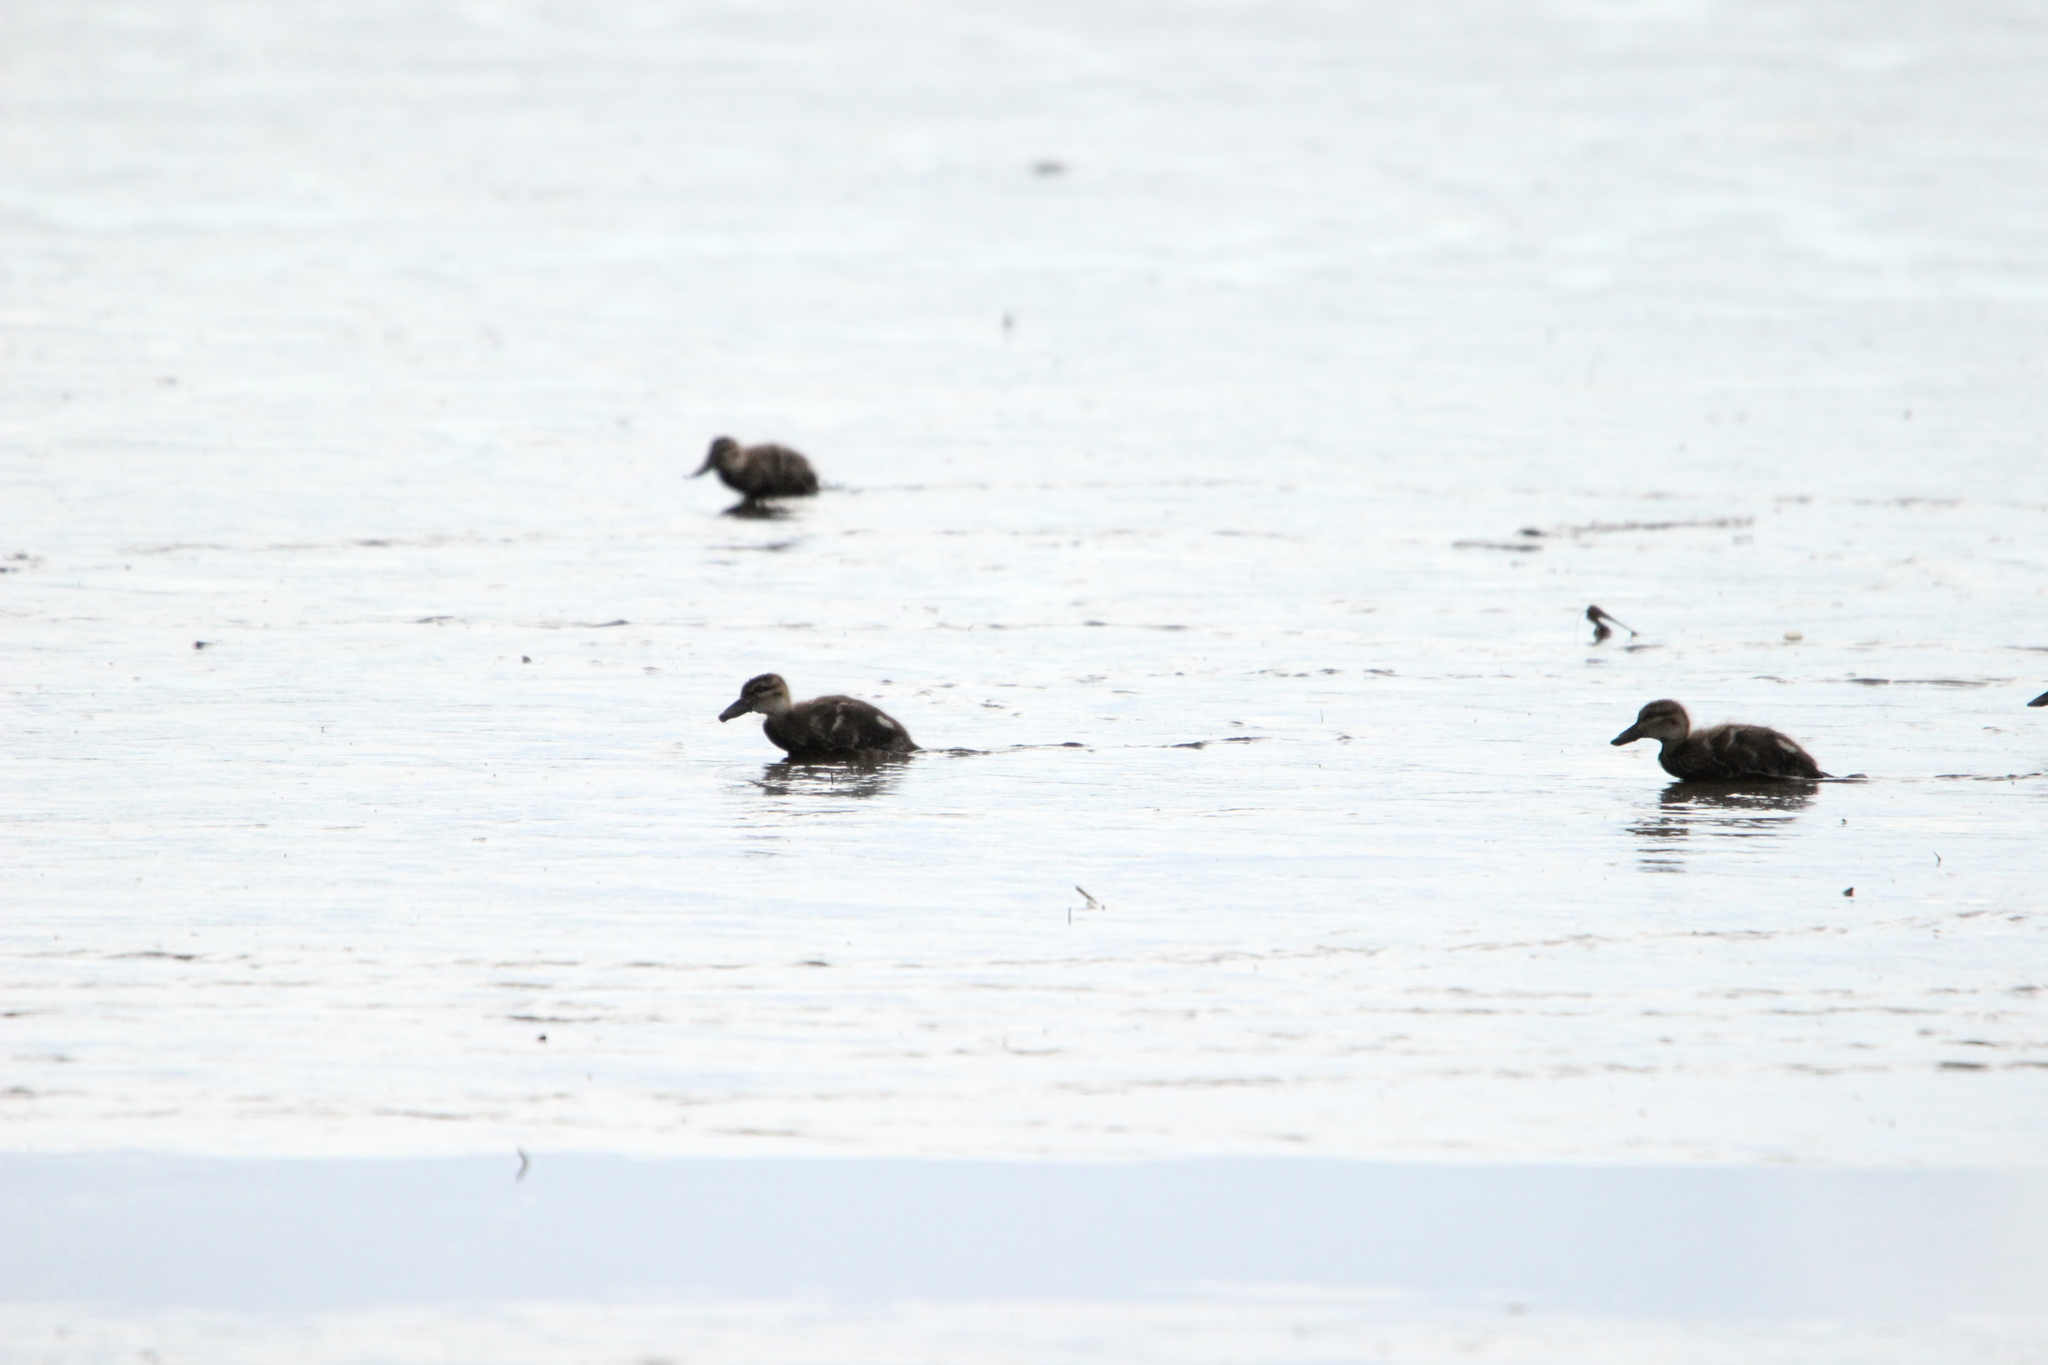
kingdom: Animalia
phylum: Chordata
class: Aves
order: Anseriformes
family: Anatidae
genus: Anas
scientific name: Anas castanea
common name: Chestnut teal
